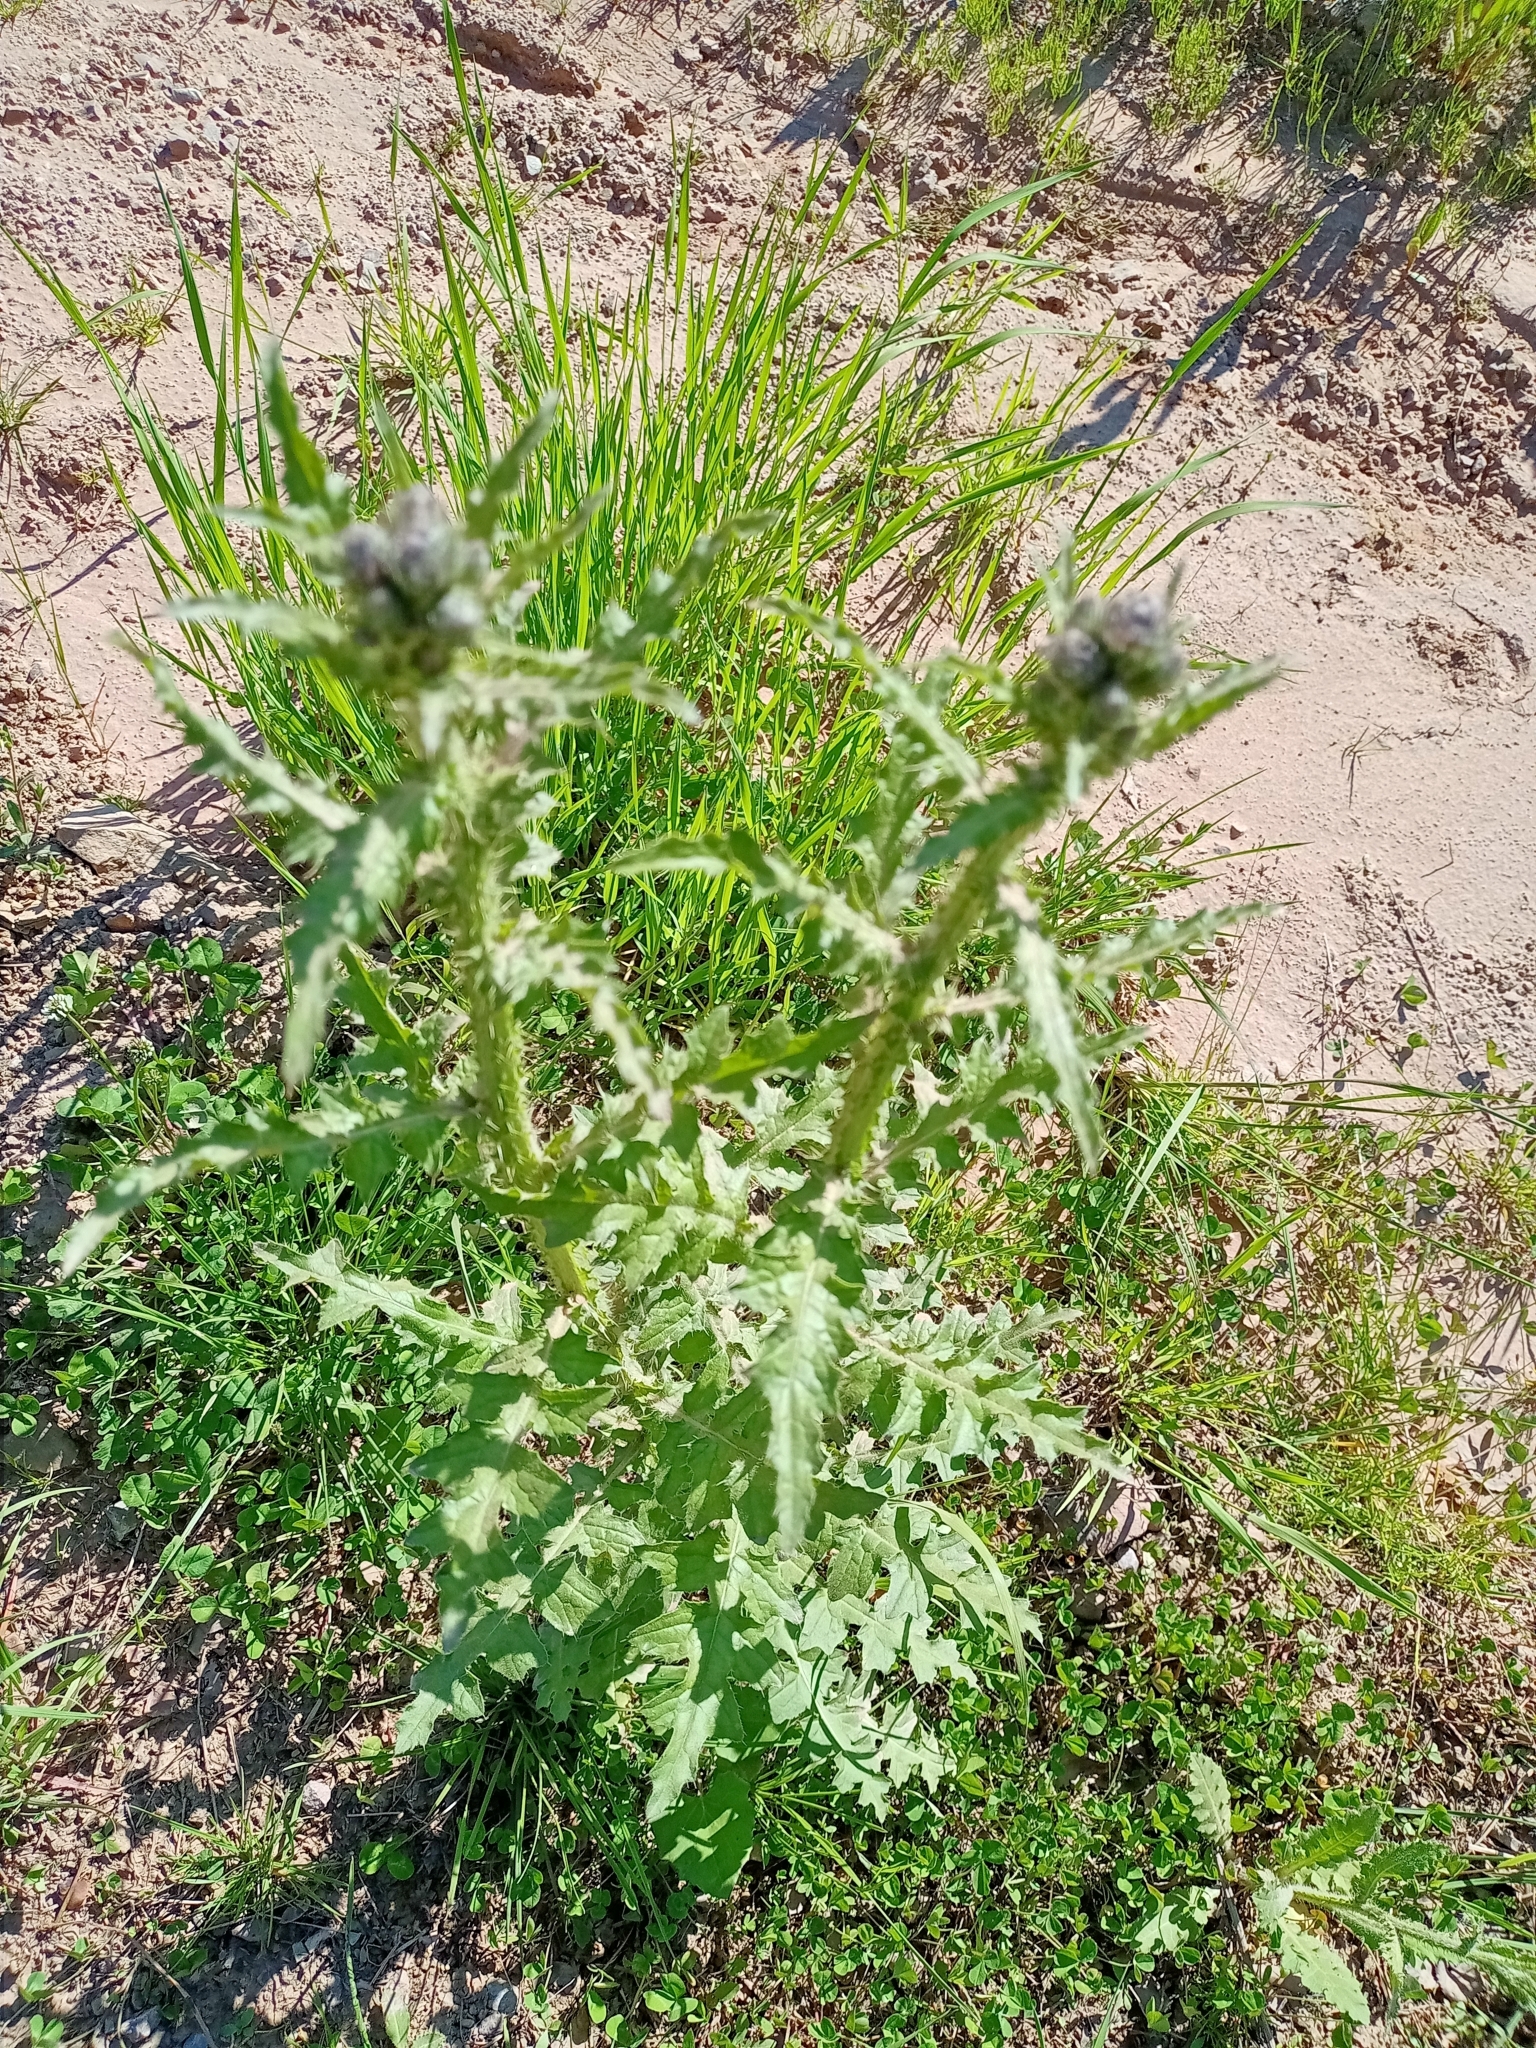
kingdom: Plantae
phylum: Tracheophyta
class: Magnoliopsida
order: Asterales
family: Asteraceae
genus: Carduus
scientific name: Carduus crispus
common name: Welted thistle
